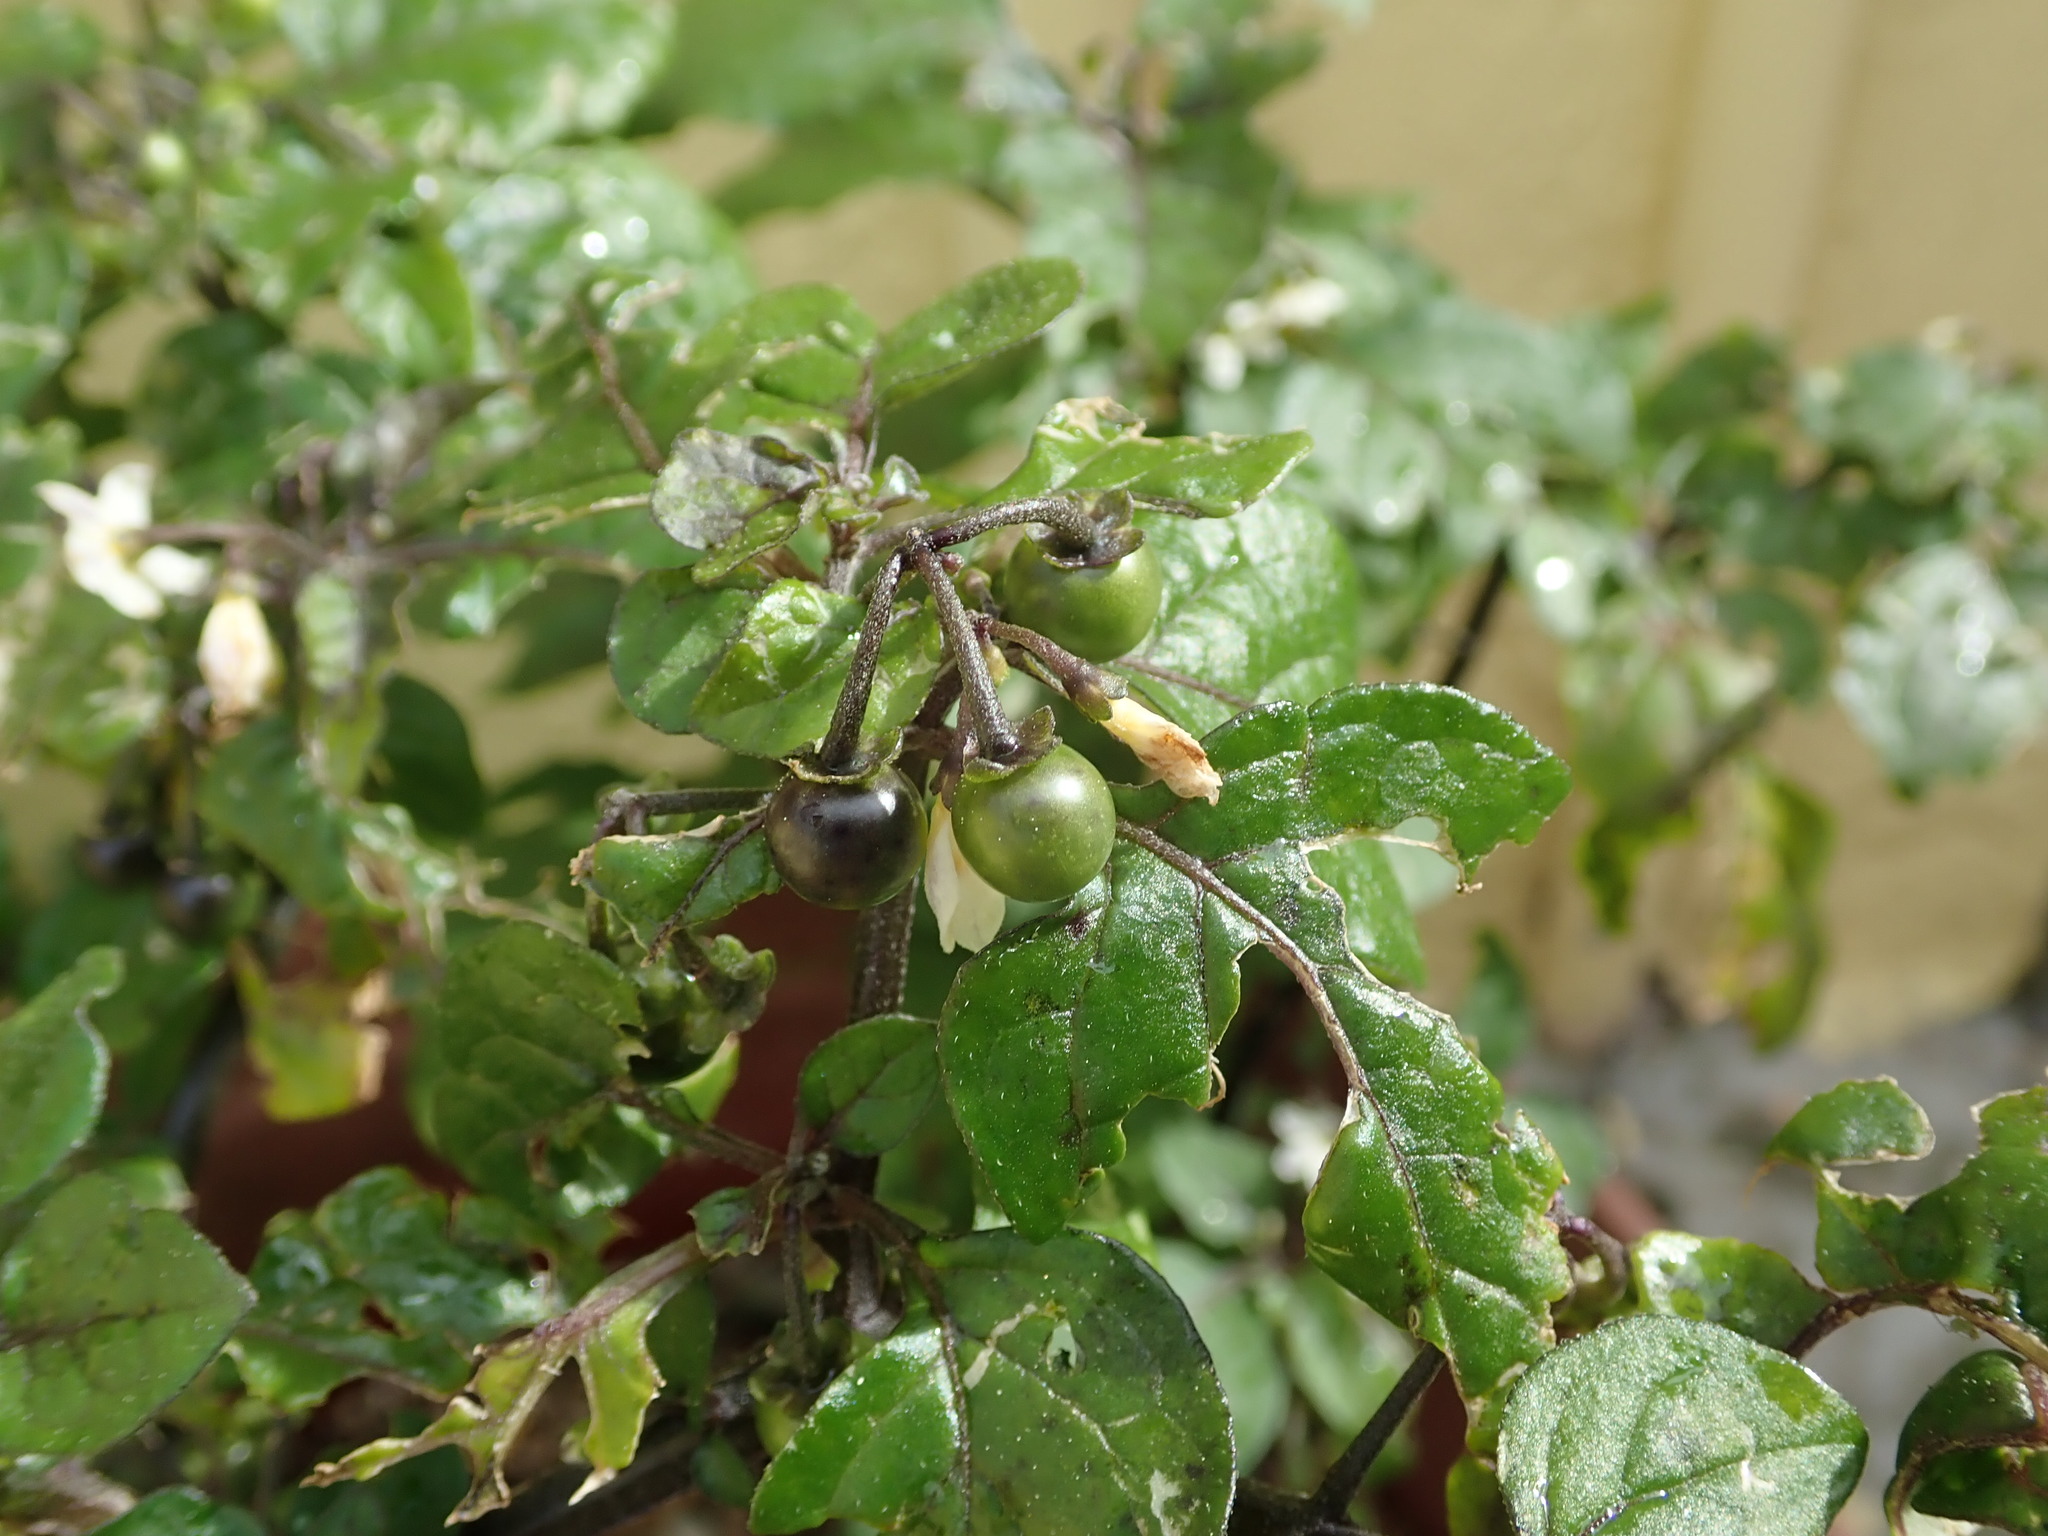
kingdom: Plantae
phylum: Tracheophyta
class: Magnoliopsida
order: Solanales
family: Solanaceae
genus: Solanum
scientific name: Solanum nigrum
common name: Black nightshade
